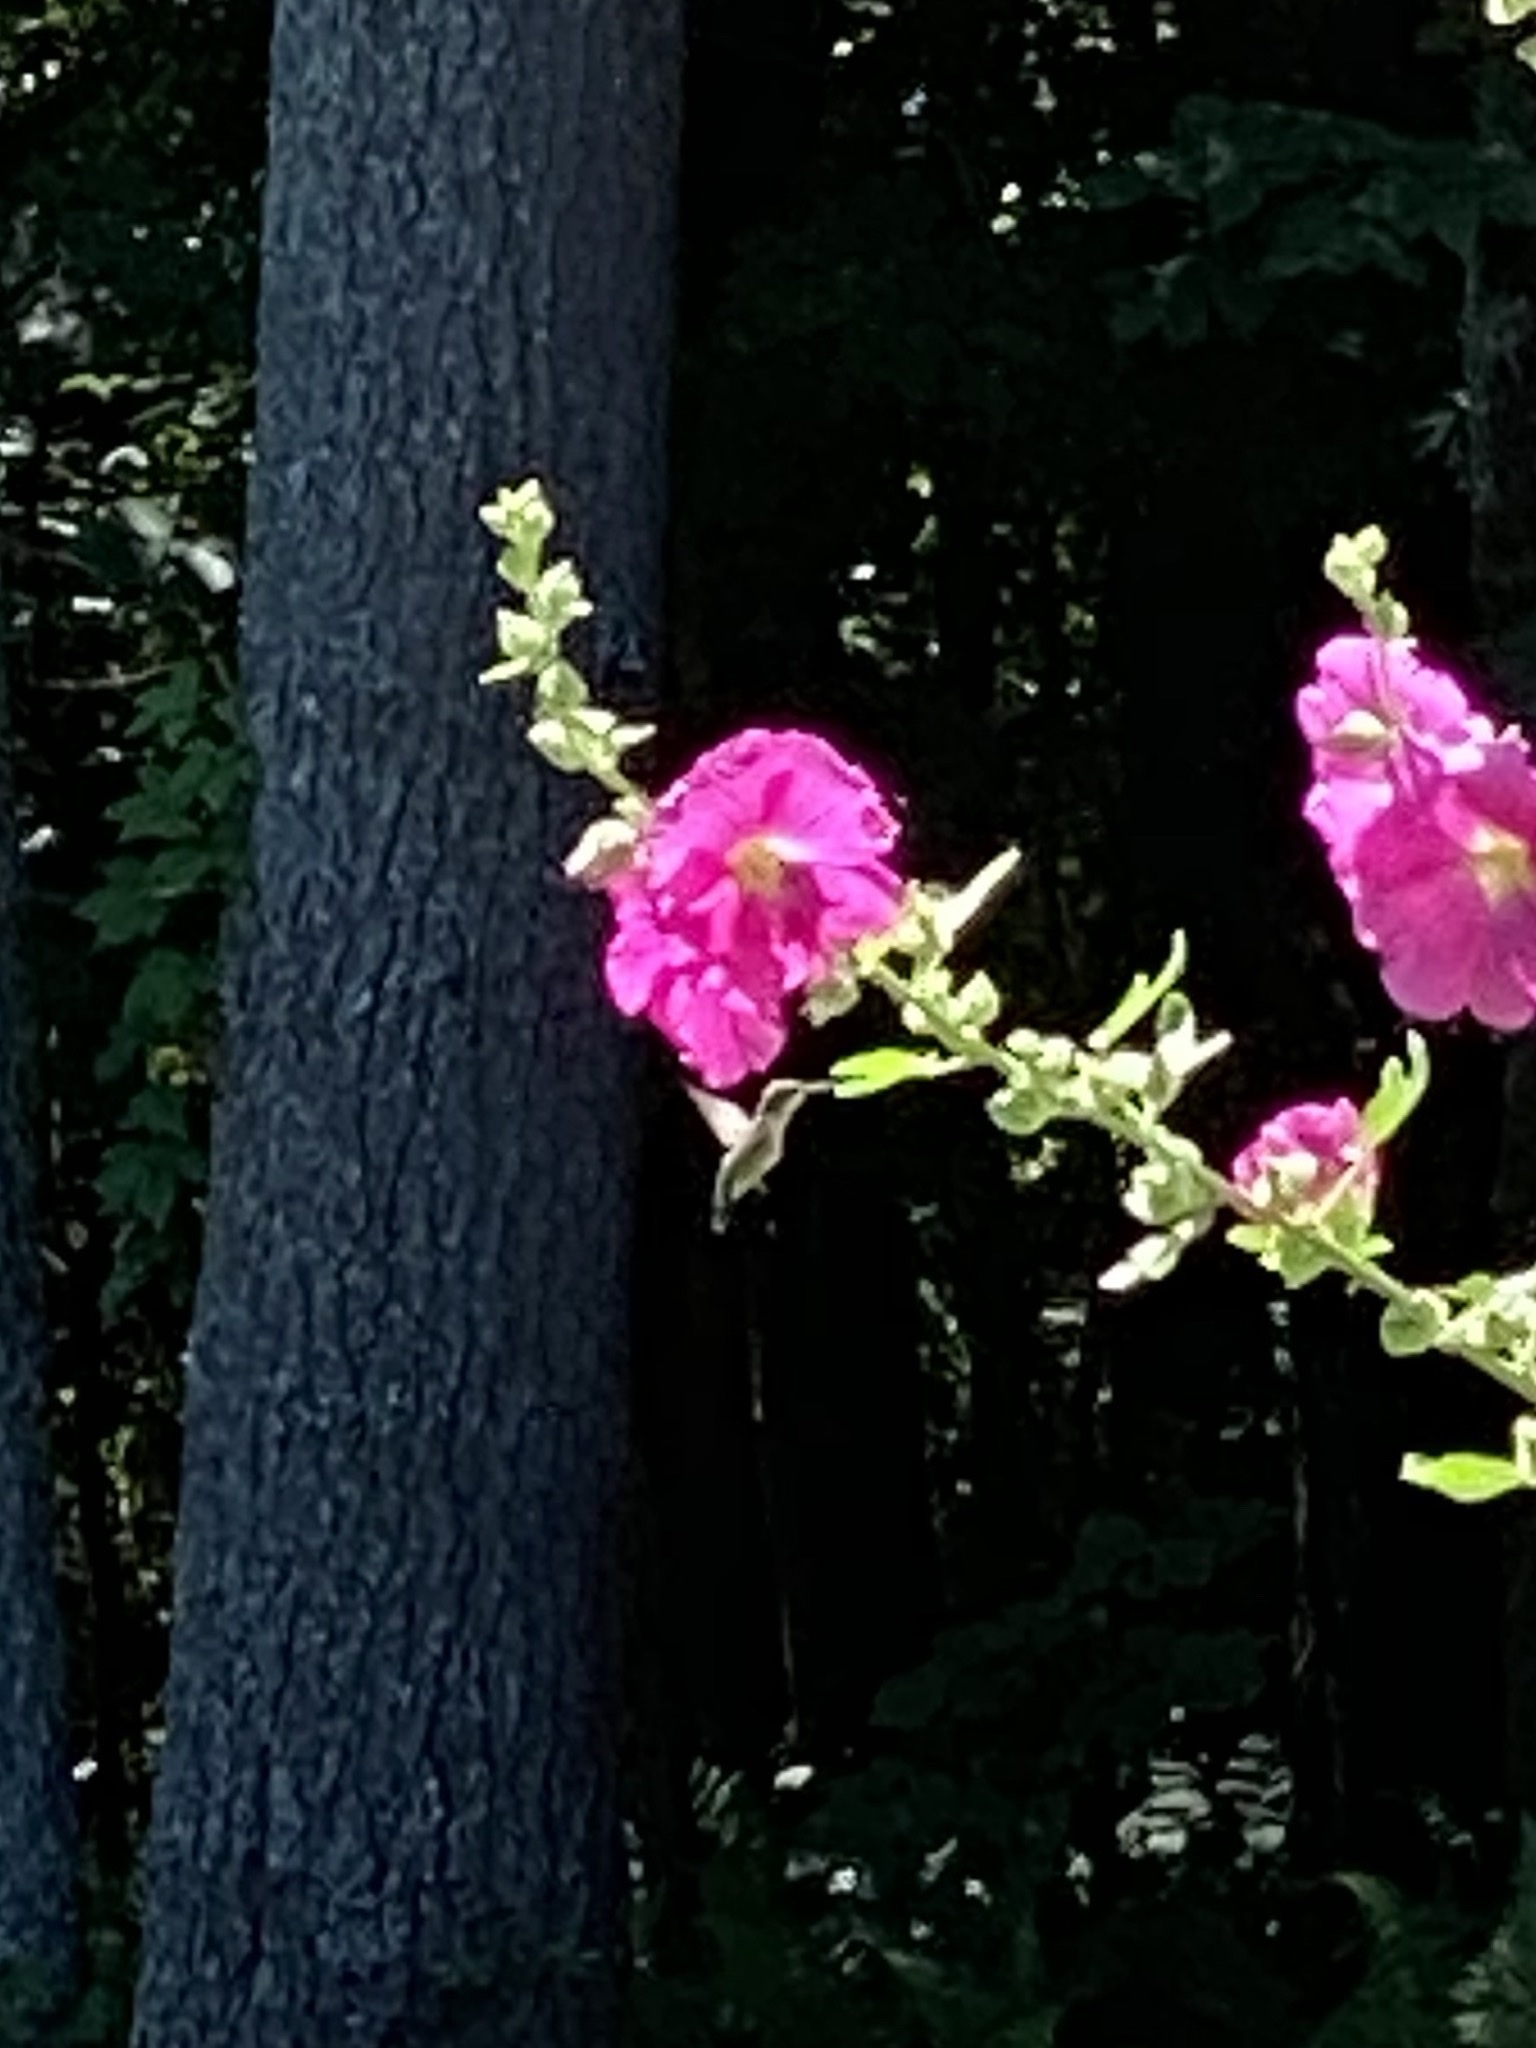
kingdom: Animalia
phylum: Chordata
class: Aves
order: Apodiformes
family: Trochilidae
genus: Archilochus
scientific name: Archilochus colubris
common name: Ruby-throated hummingbird
